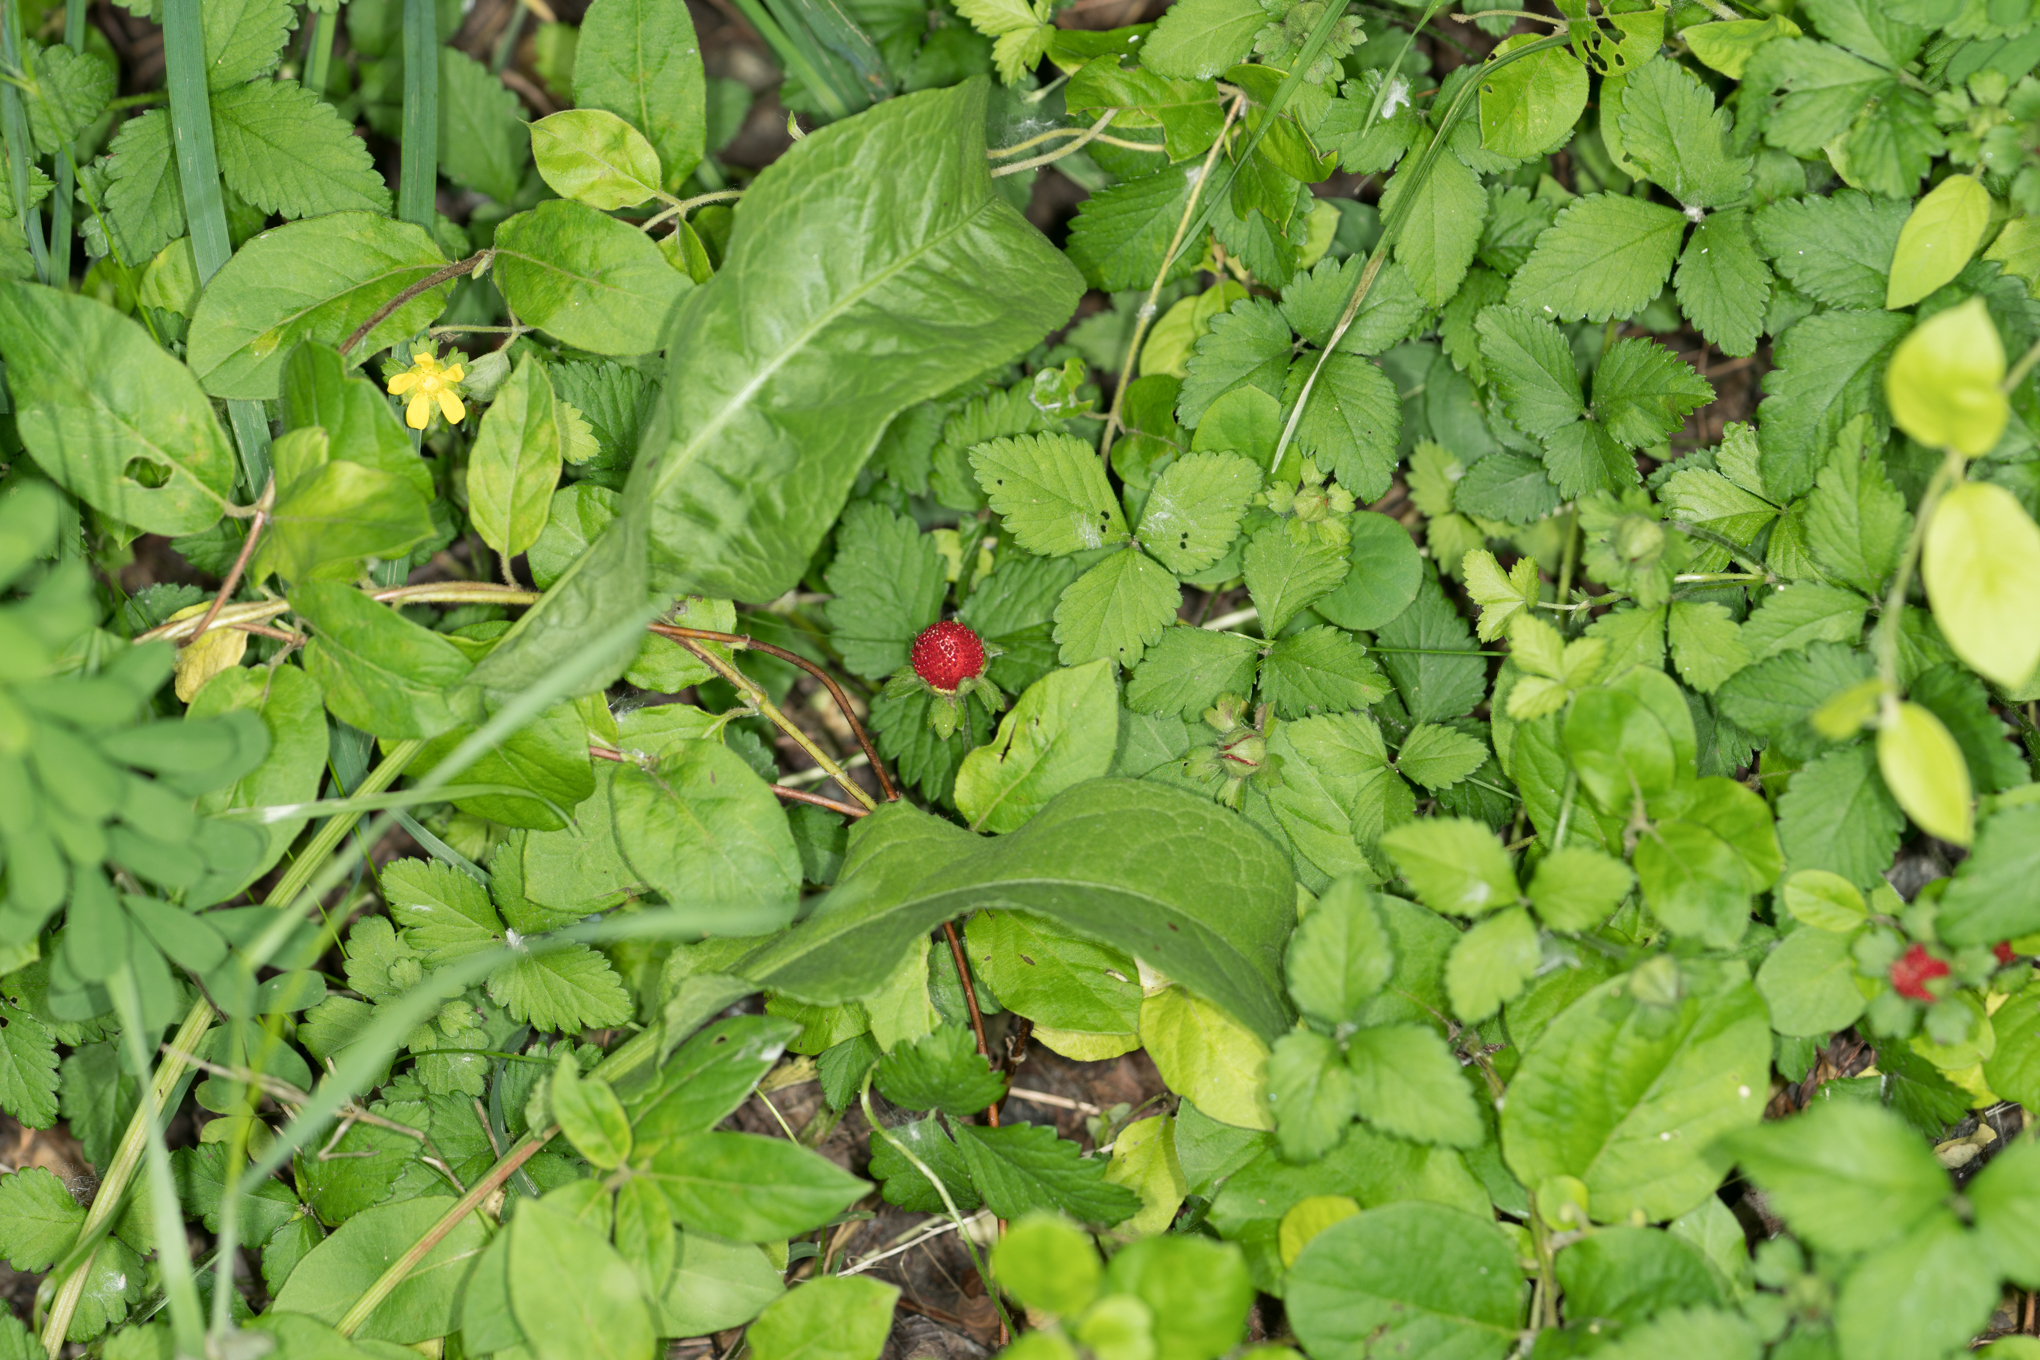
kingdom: Plantae
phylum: Tracheophyta
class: Magnoliopsida
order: Rosales
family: Rosaceae
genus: Potentilla
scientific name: Potentilla indica
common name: Yellow-flowered strawberry
